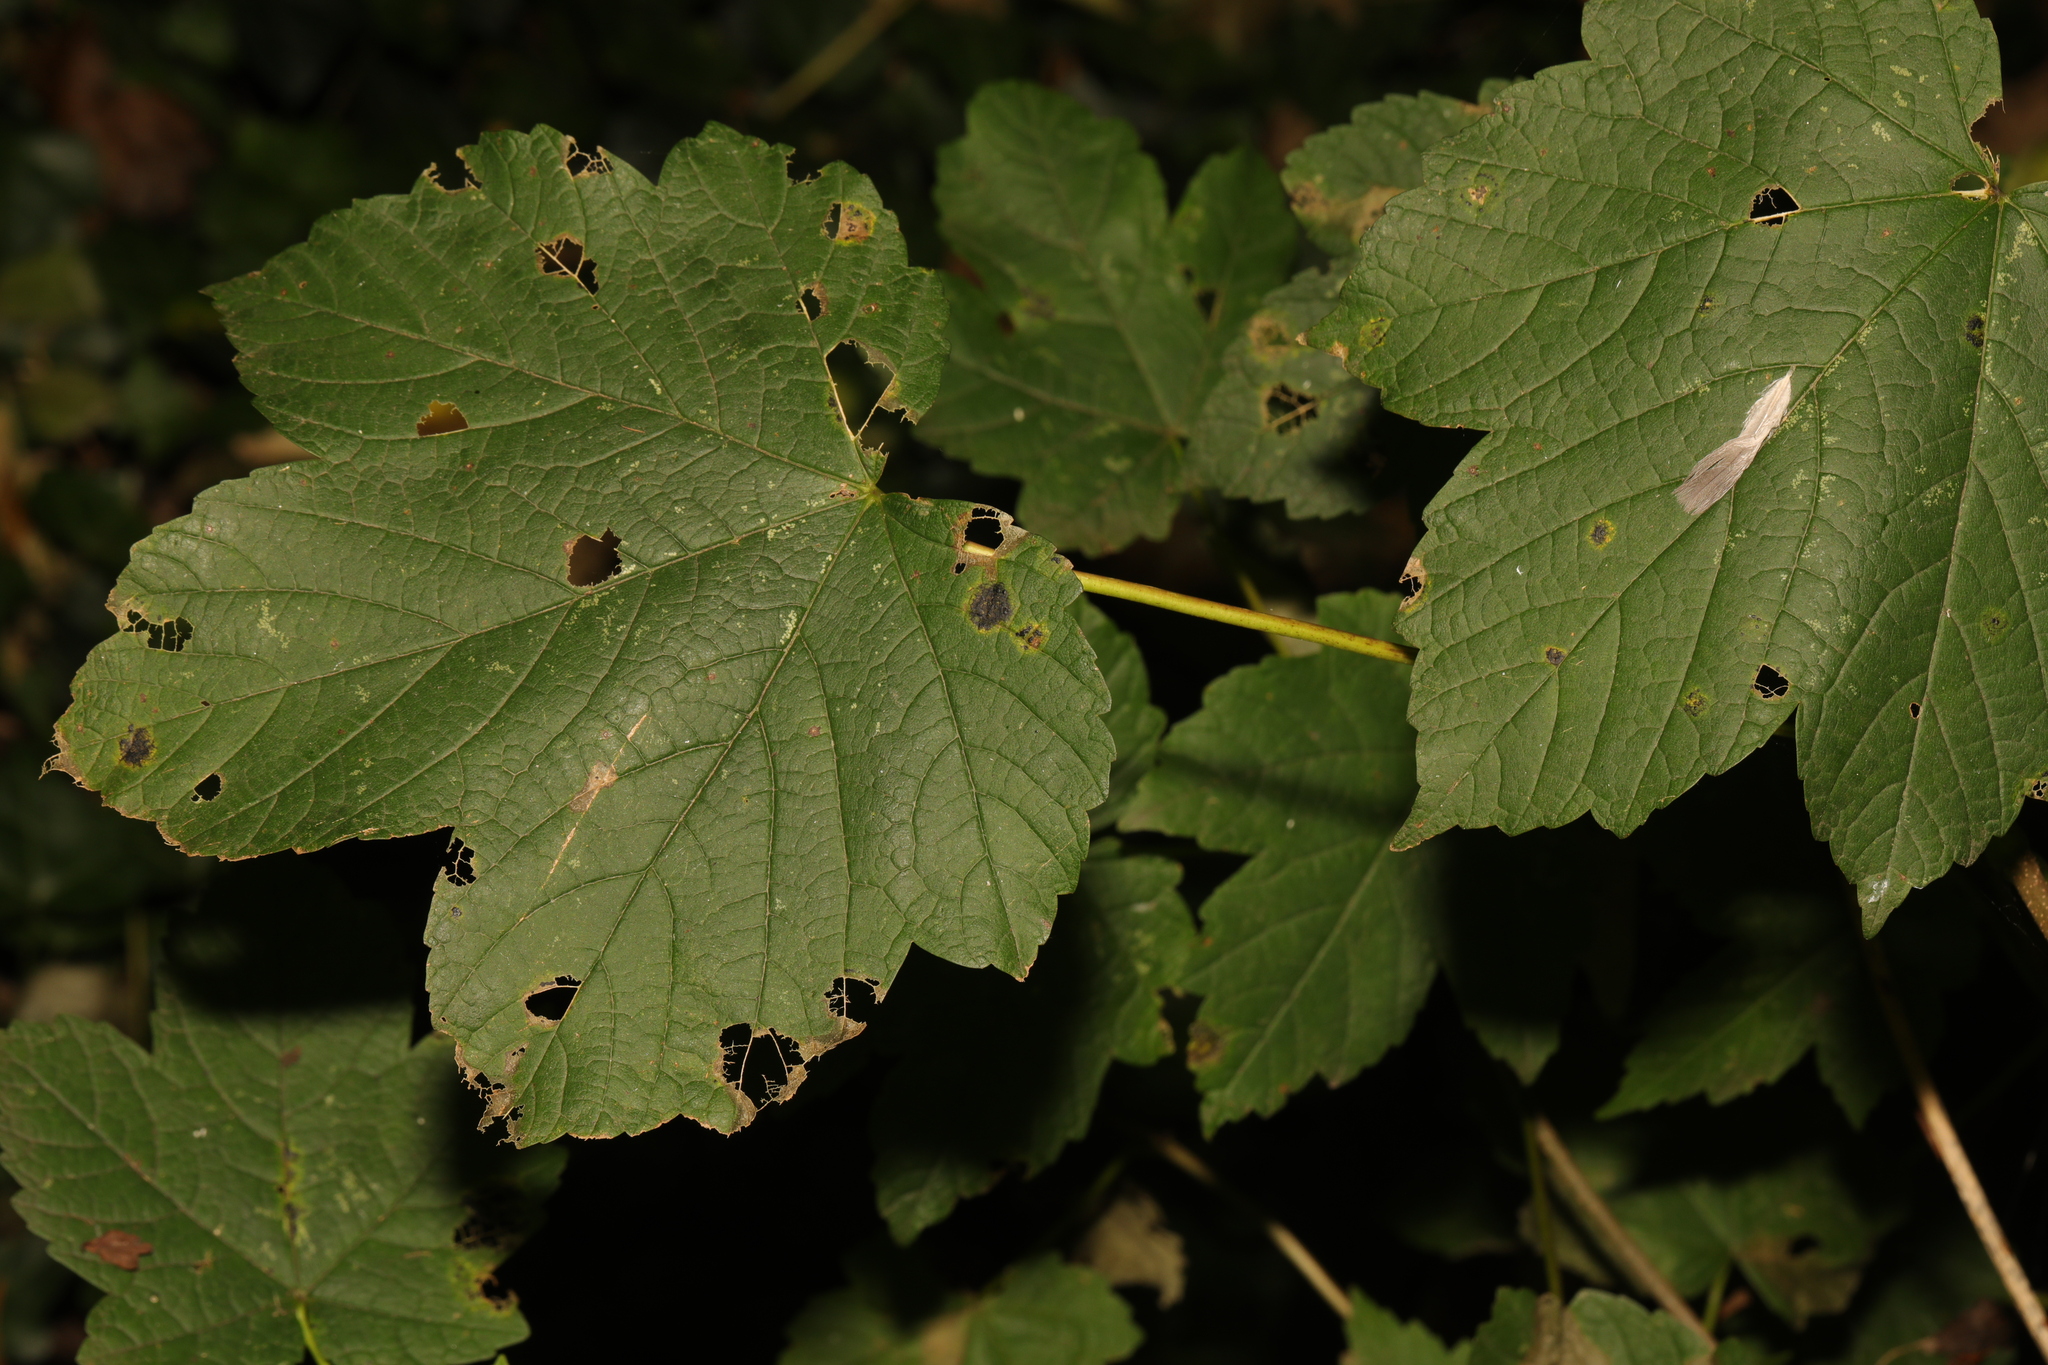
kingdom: Plantae
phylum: Tracheophyta
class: Magnoliopsida
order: Sapindales
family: Sapindaceae
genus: Acer
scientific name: Acer pseudoplatanus
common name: Sycamore
